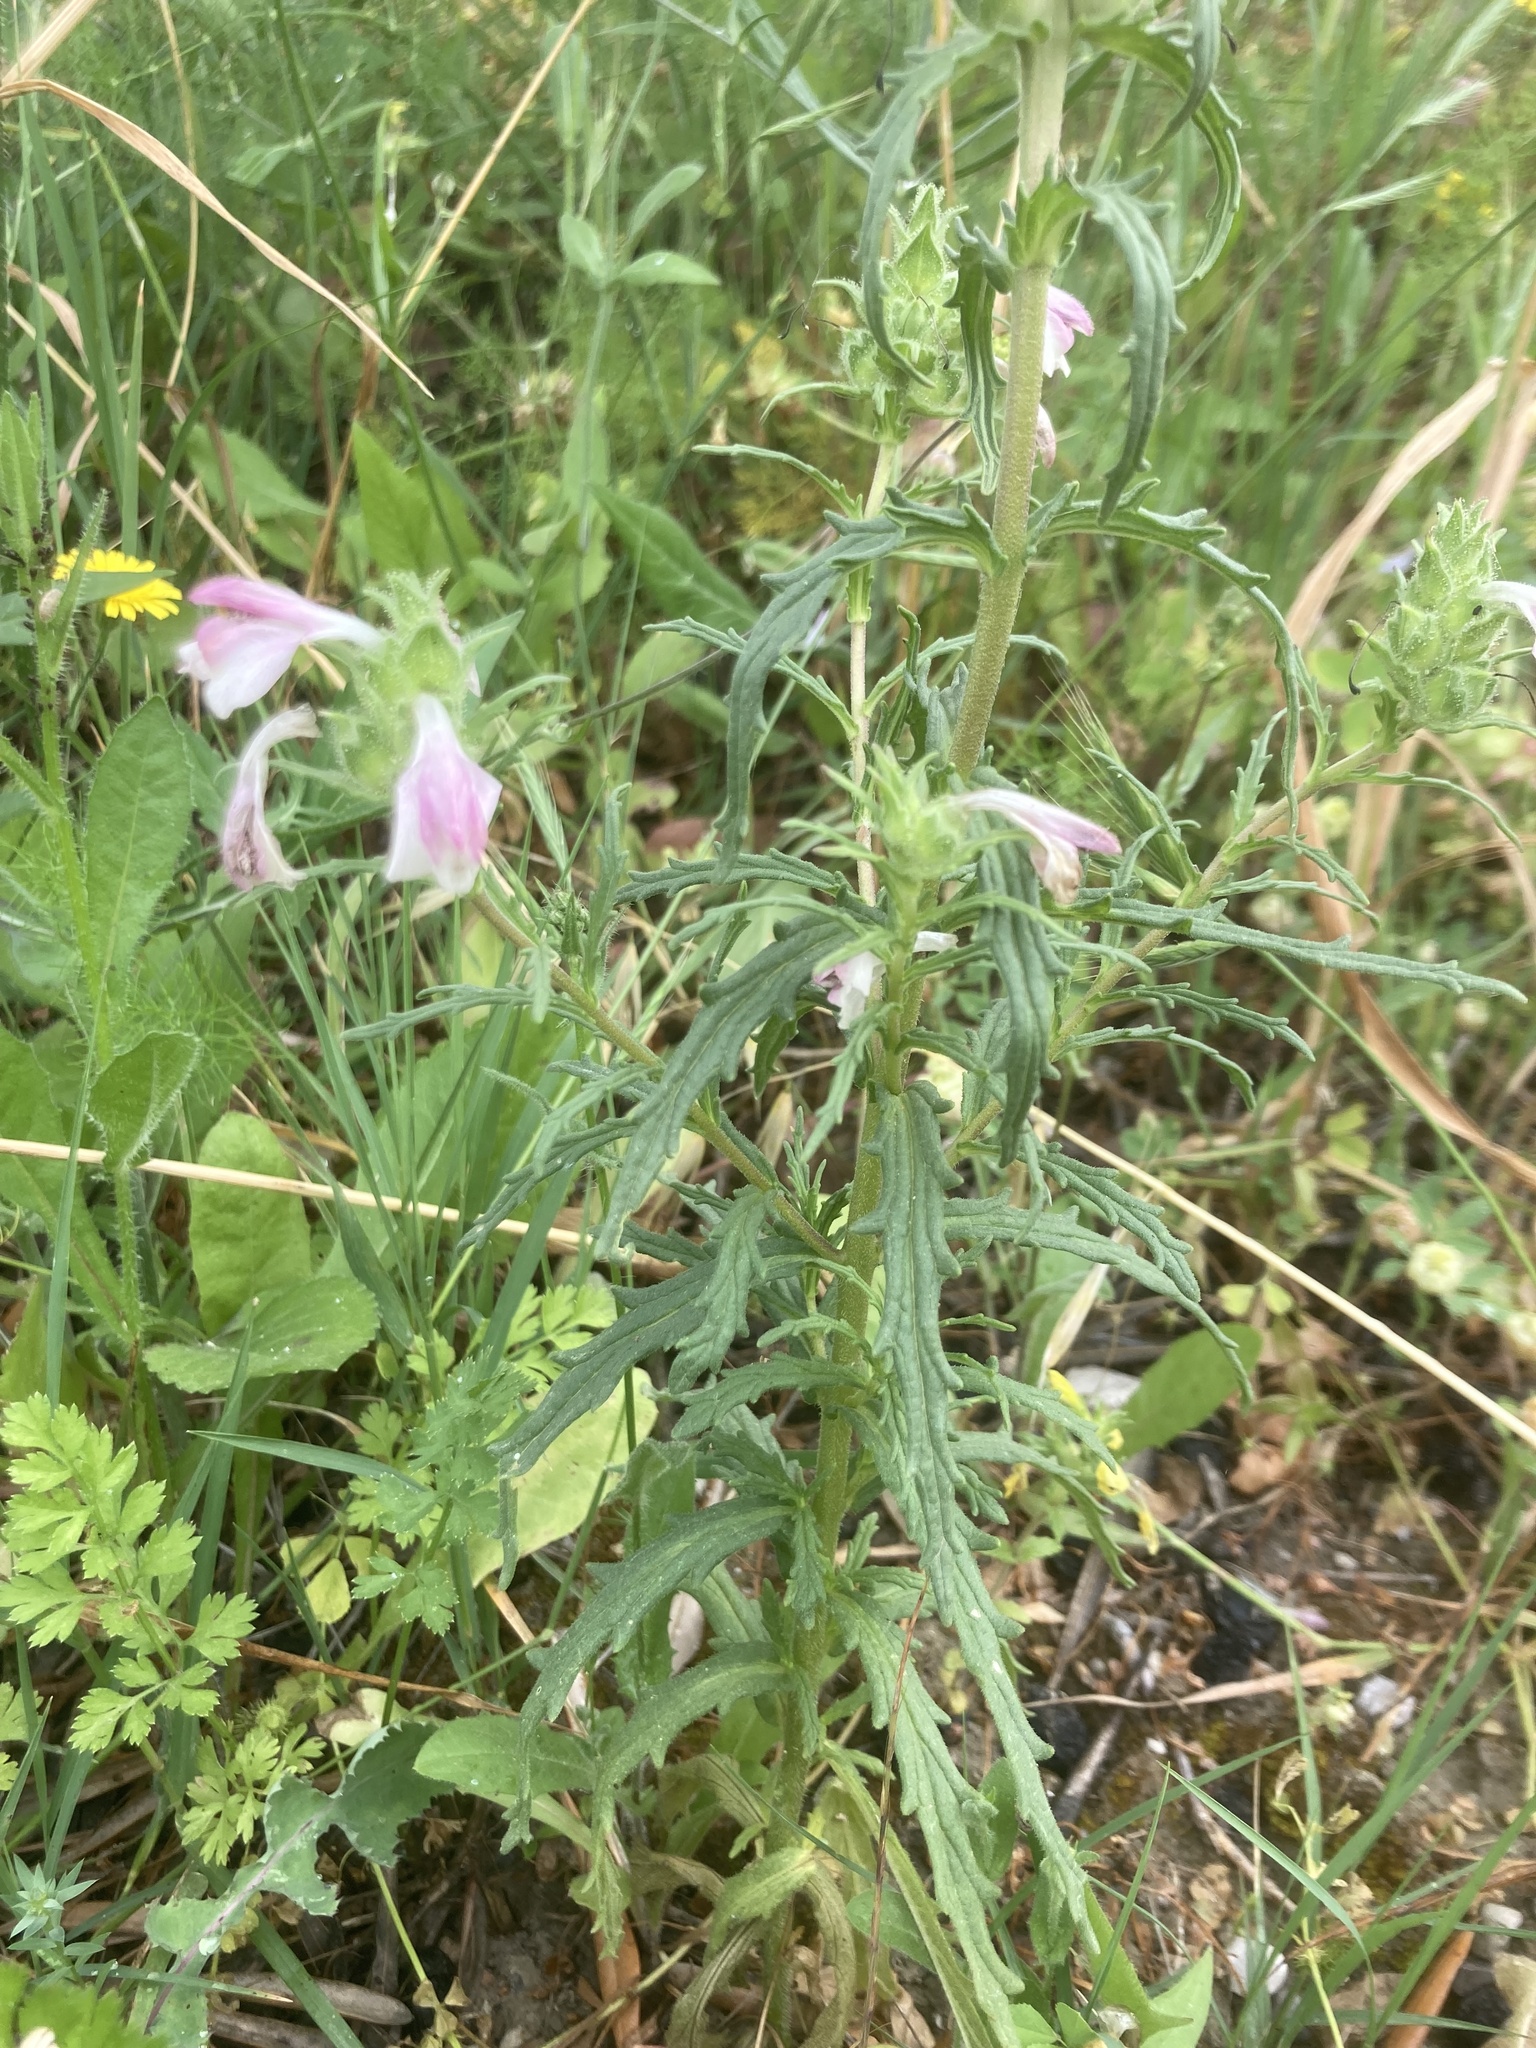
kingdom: Plantae
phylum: Tracheophyta
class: Magnoliopsida
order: Lamiales
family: Orobanchaceae
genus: Bellardia
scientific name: Bellardia trixago
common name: Mediterranean lineseed
